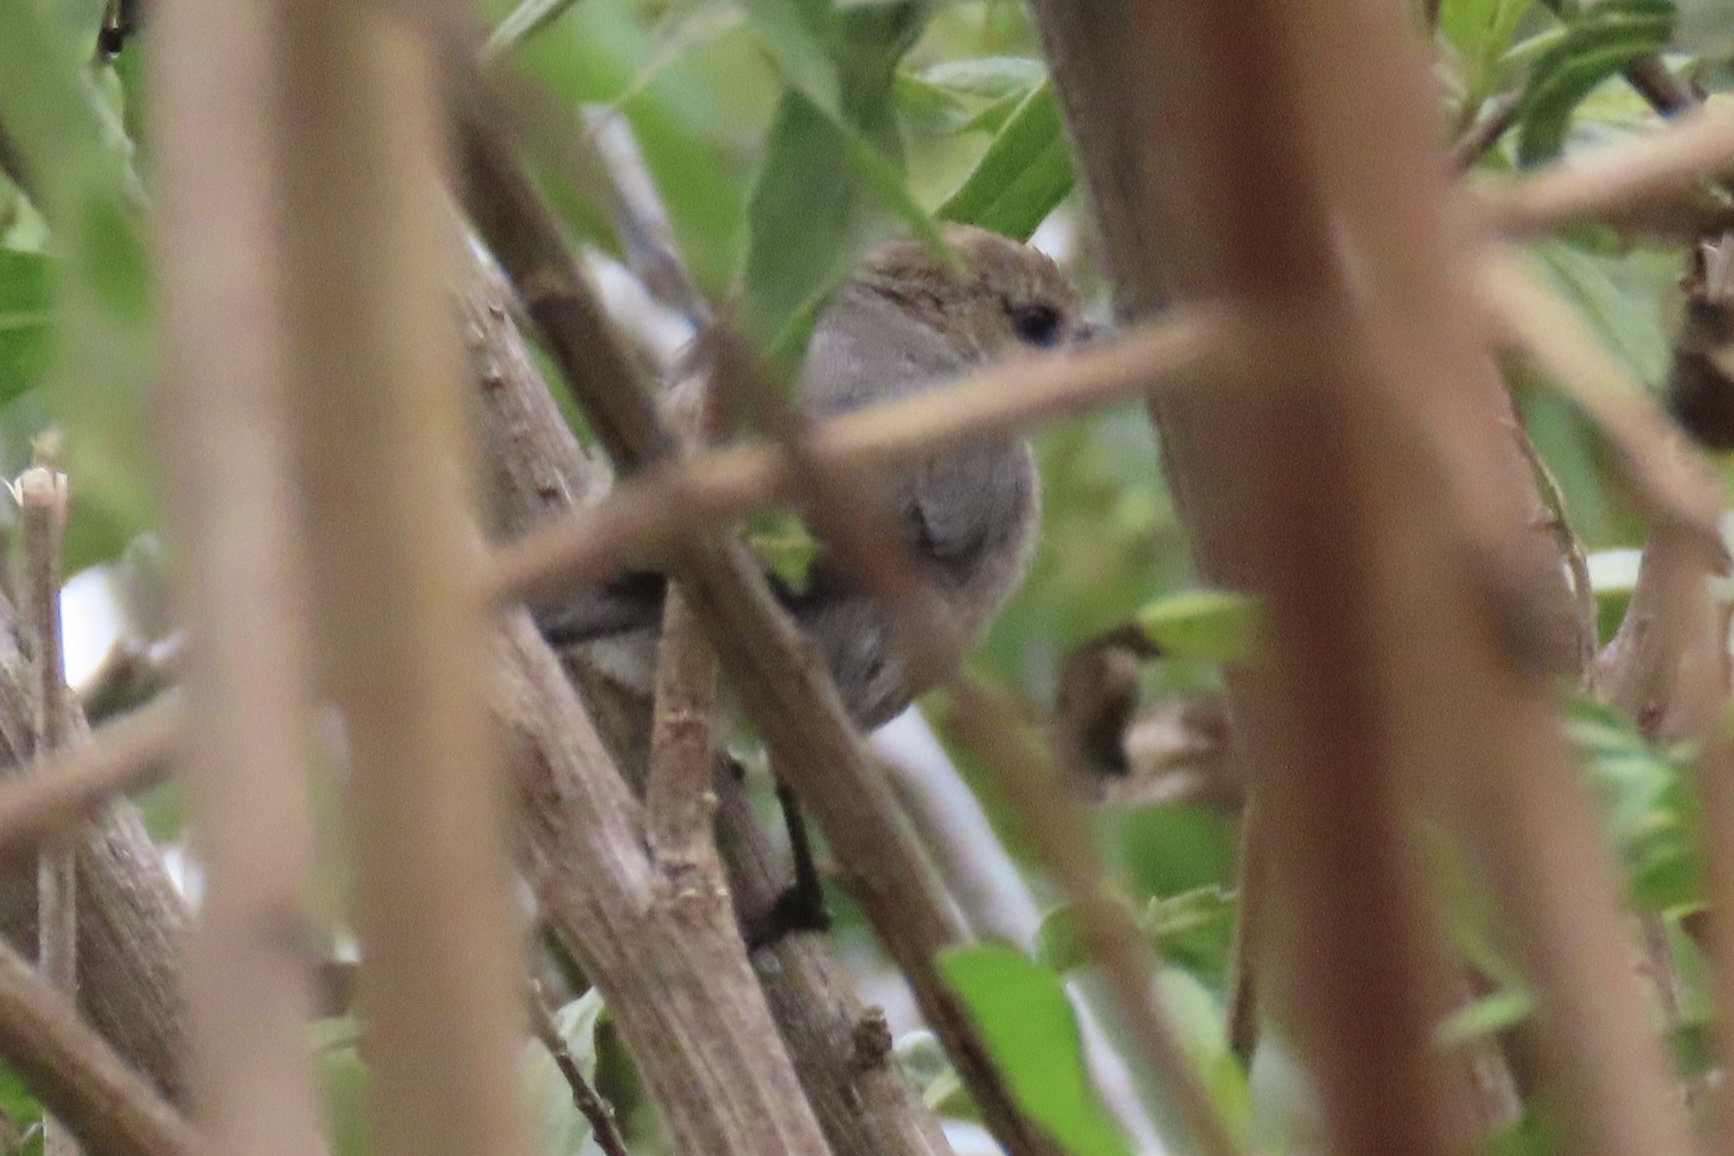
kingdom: Animalia
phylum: Chordata
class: Aves
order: Passeriformes
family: Aegithalidae
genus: Psaltriparus
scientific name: Psaltriparus minimus
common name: American bushtit
